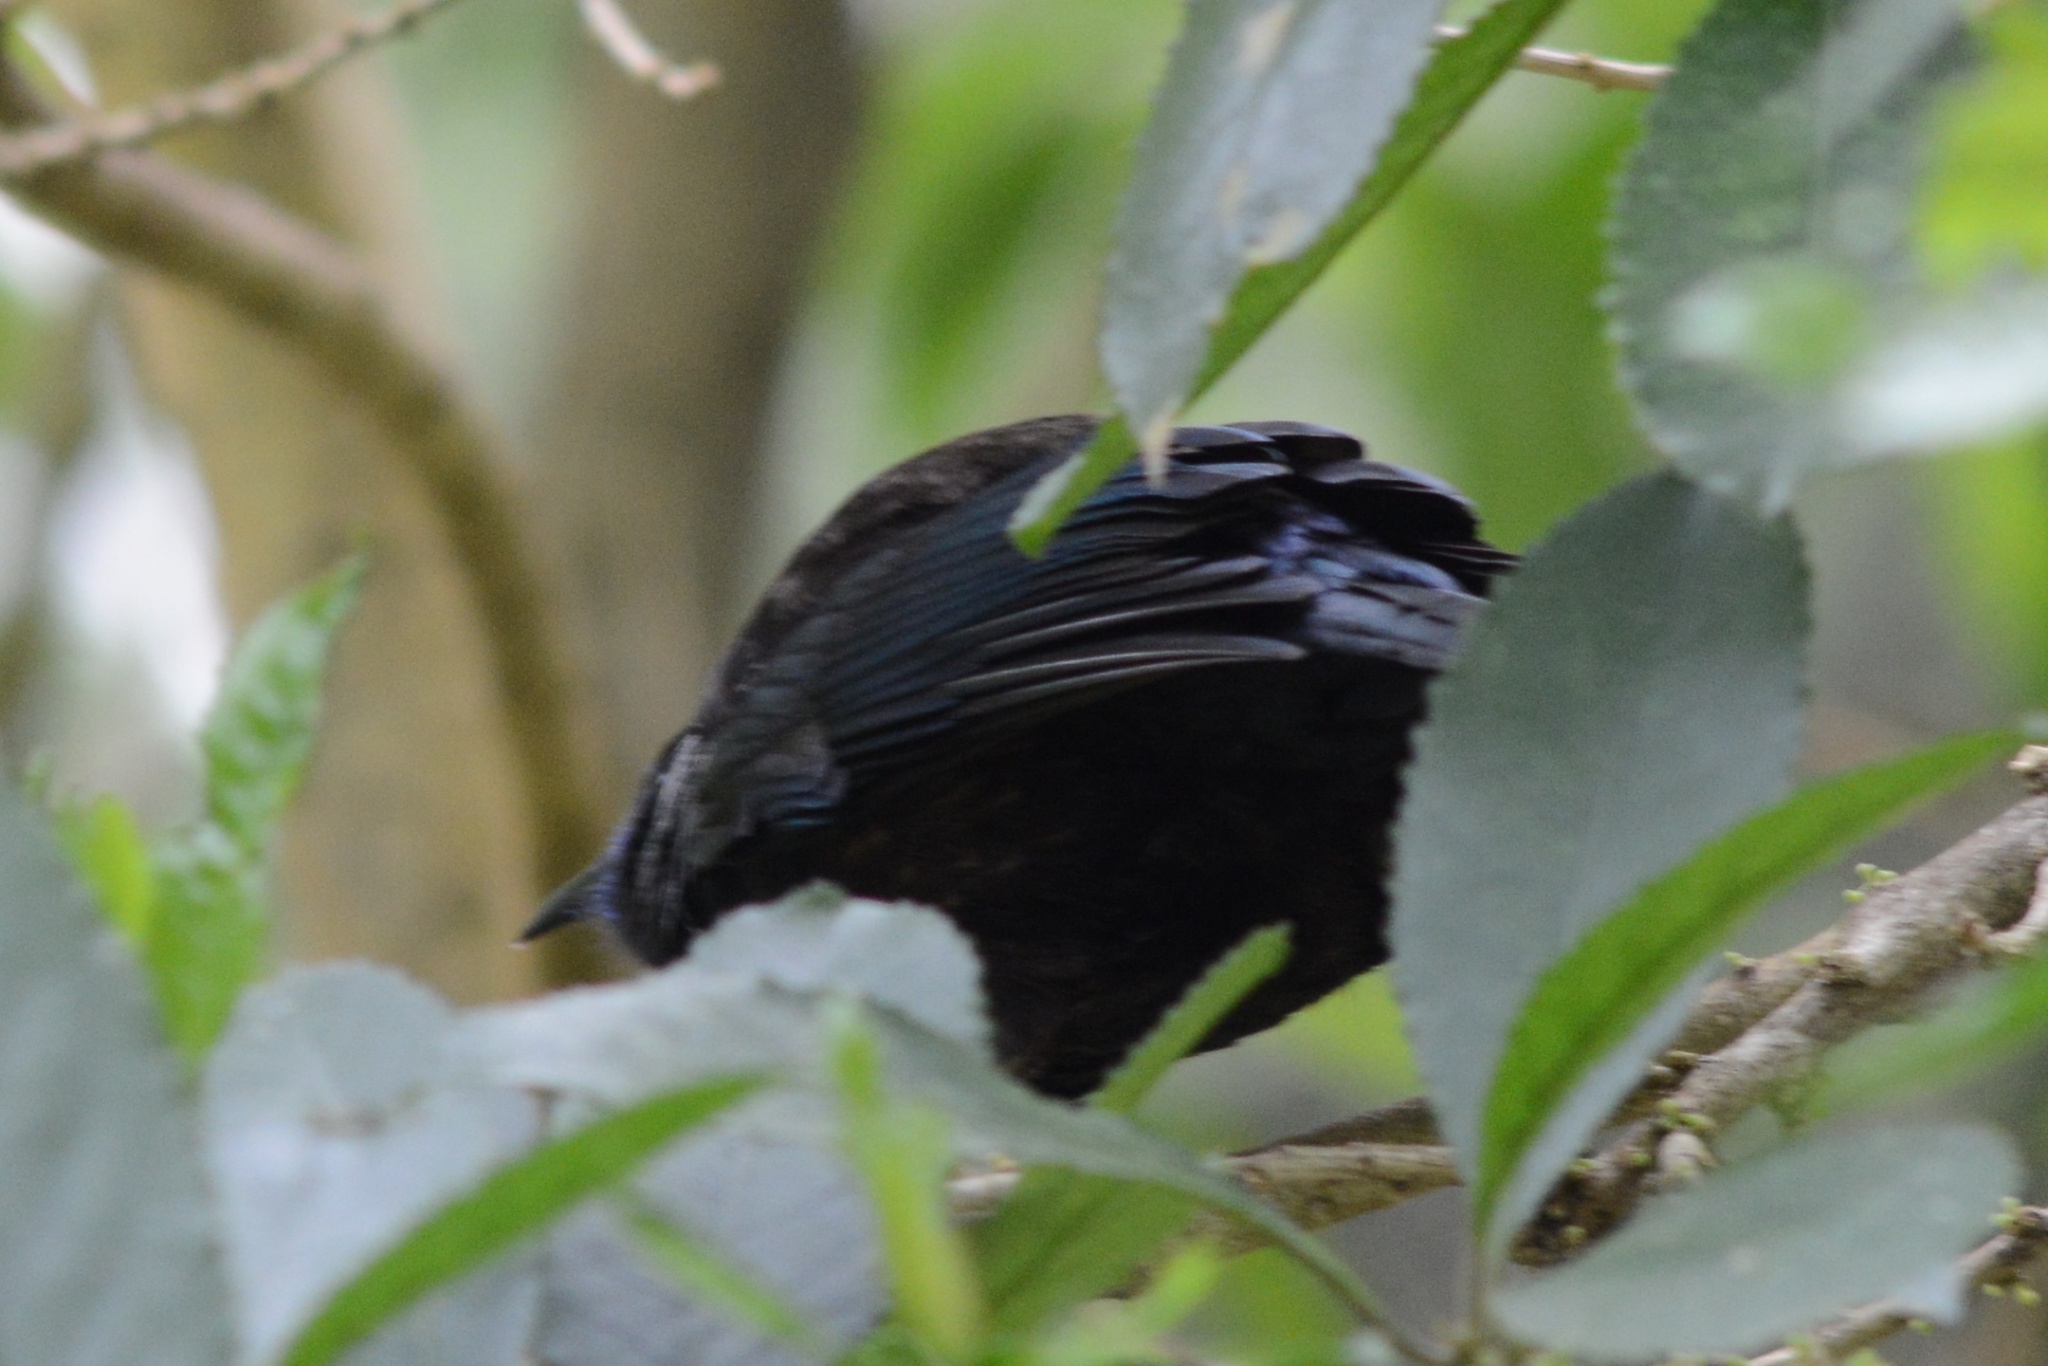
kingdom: Animalia
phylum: Chordata
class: Aves
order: Passeriformes
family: Meliphagidae
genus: Prosthemadera
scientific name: Prosthemadera novaeseelandiae
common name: Tui
